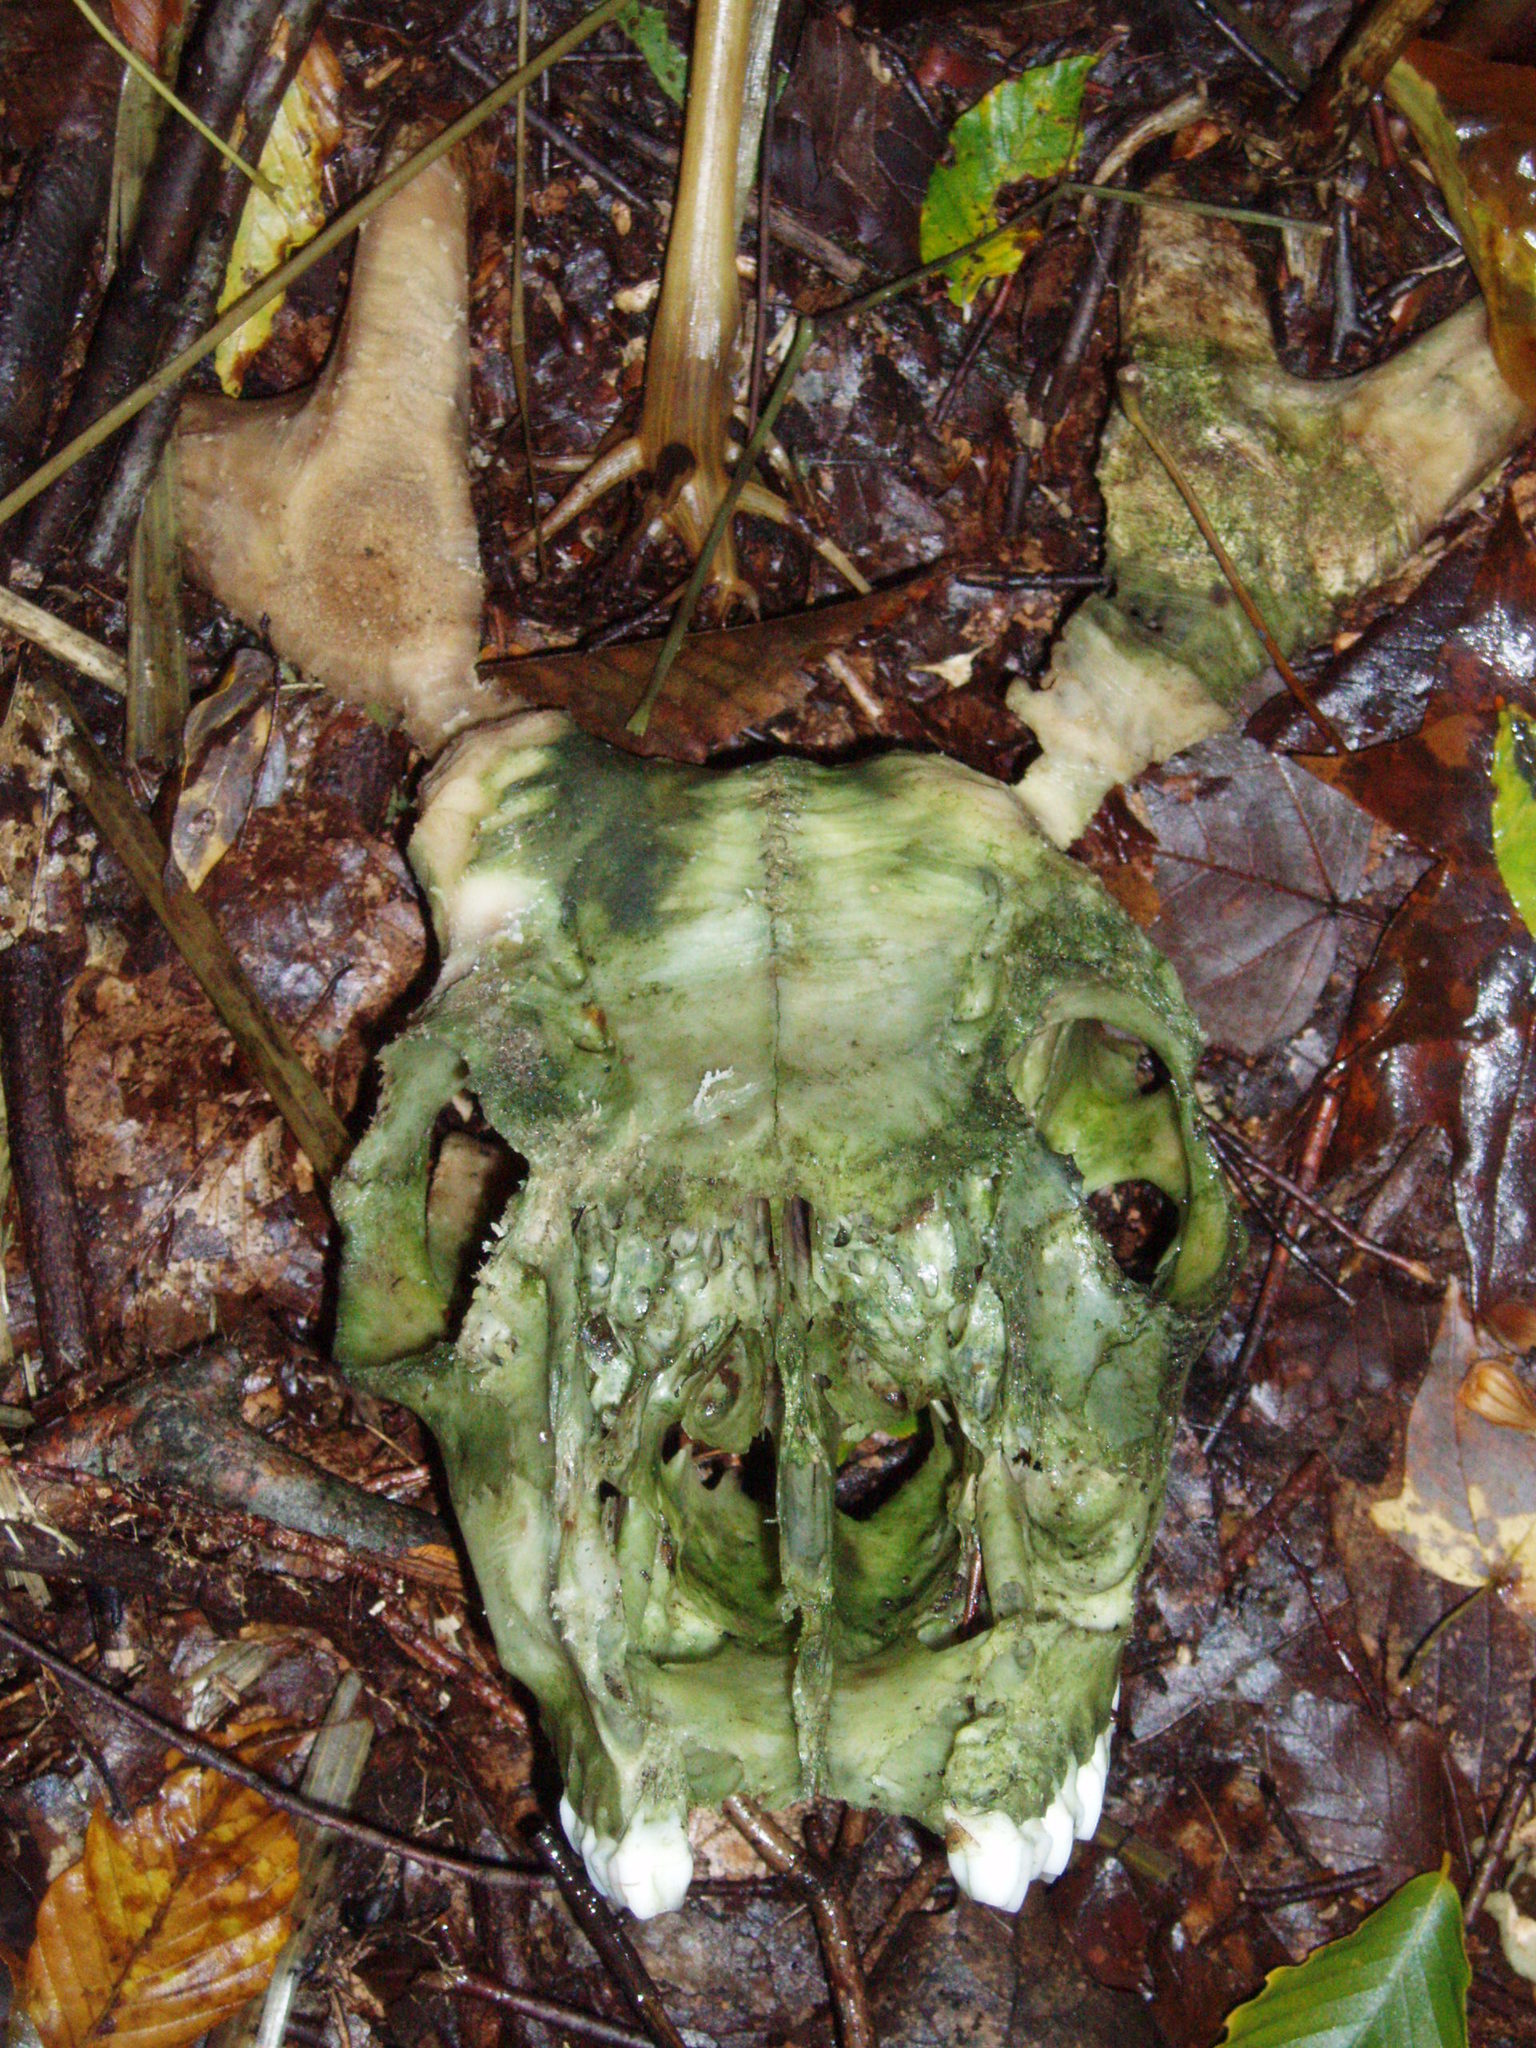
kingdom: Animalia
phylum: Chordata
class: Mammalia
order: Artiodactyla
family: Cervidae
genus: Odocoileus
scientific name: Odocoileus virginianus
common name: White-tailed deer
